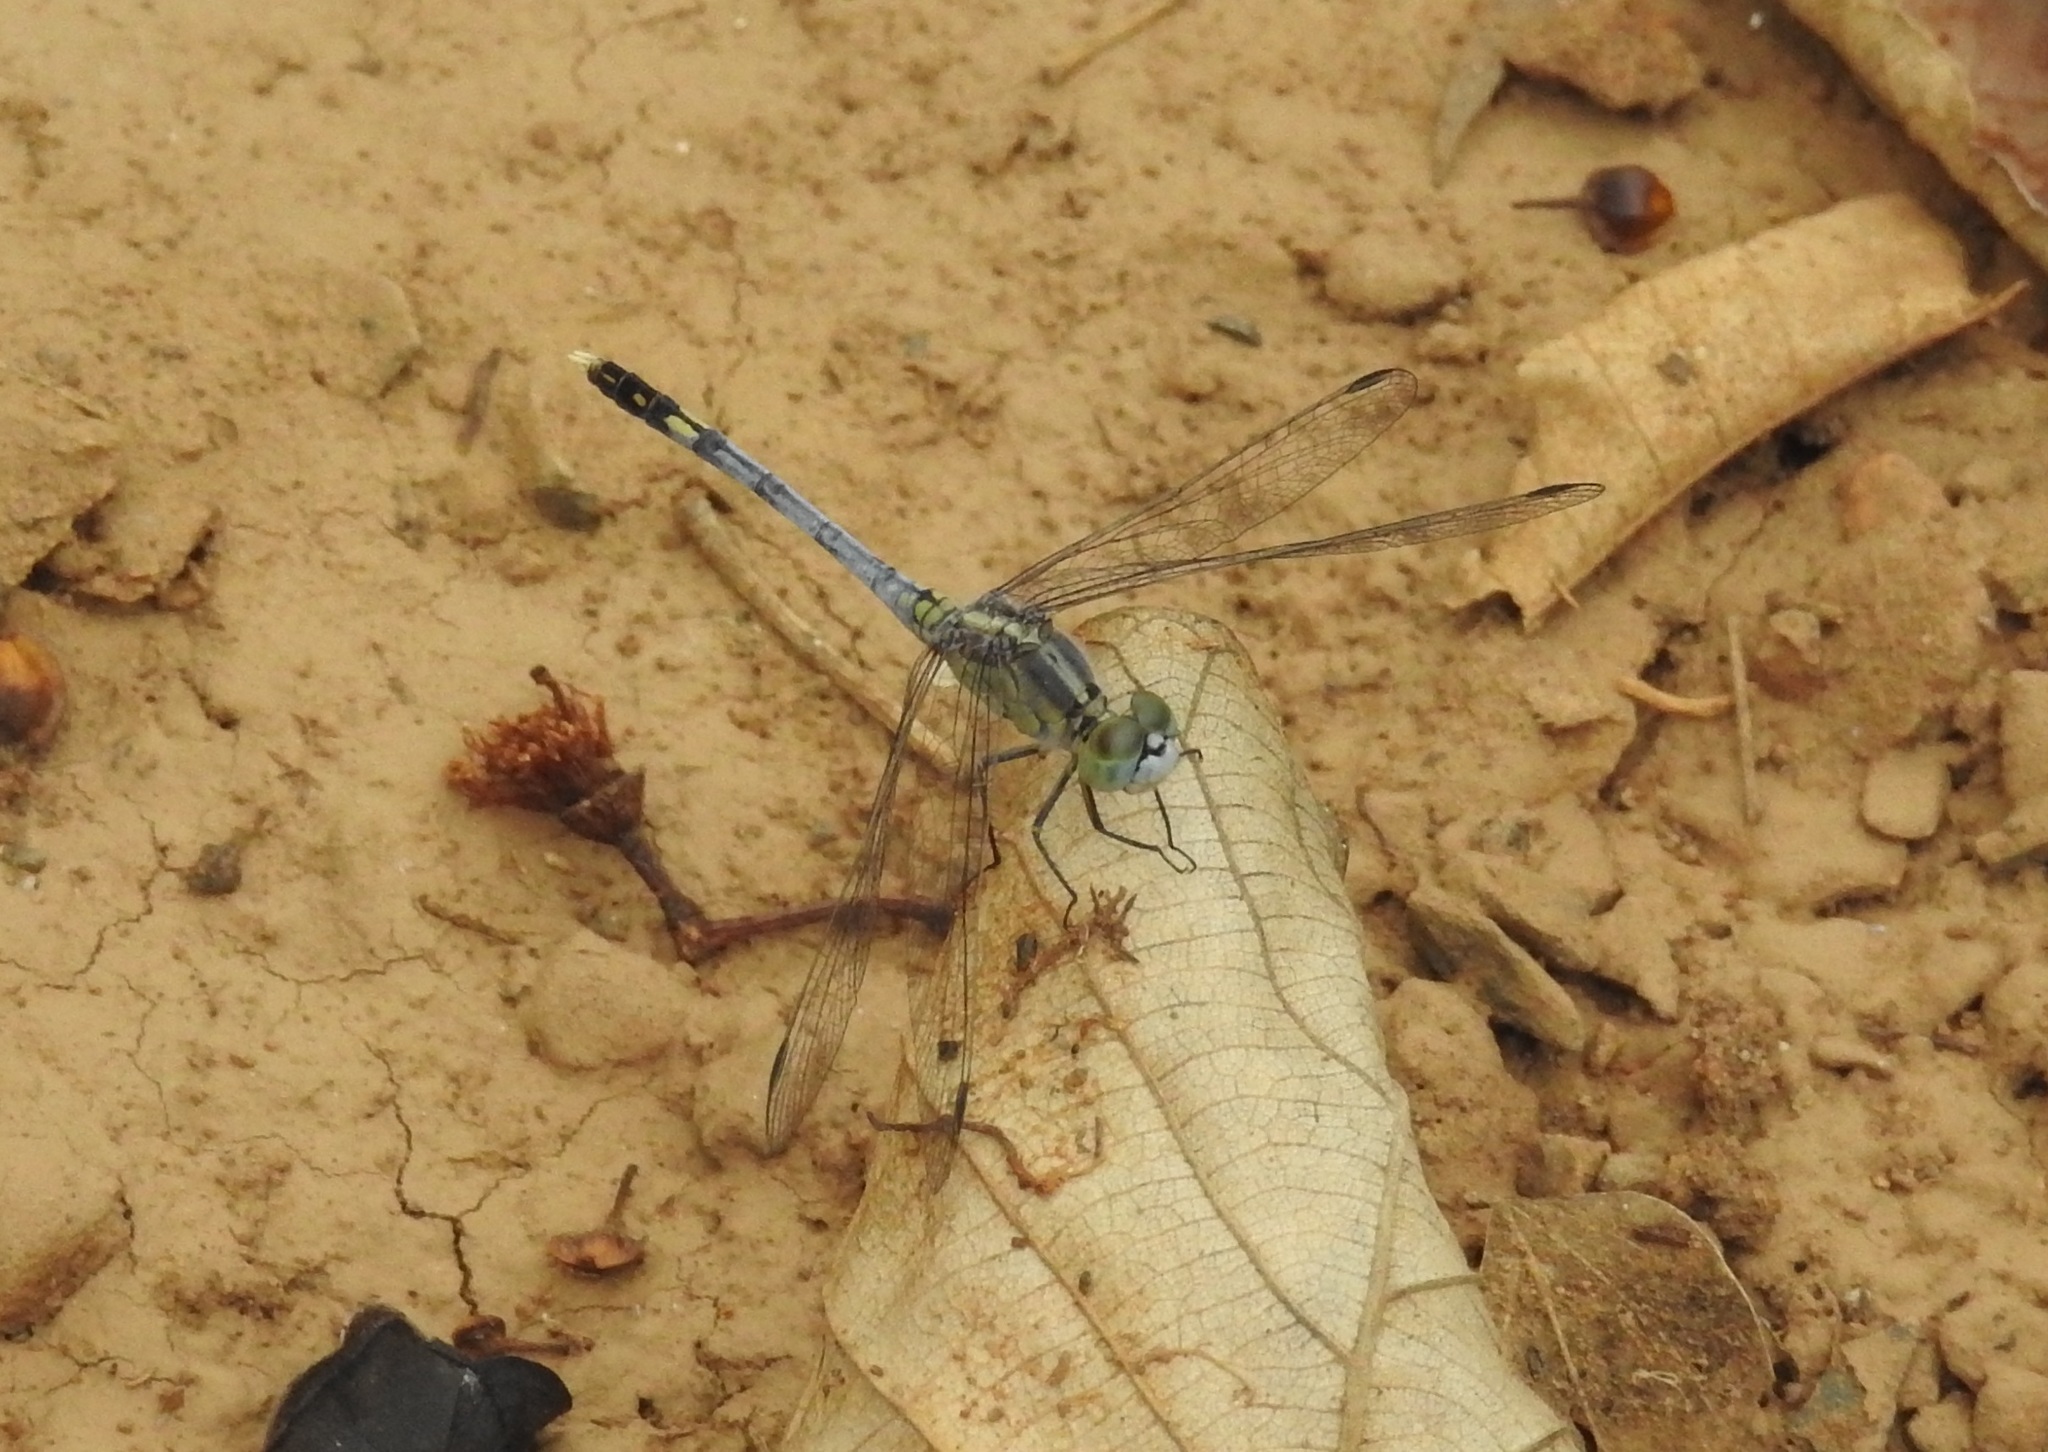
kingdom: Animalia
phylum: Arthropoda
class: Insecta
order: Odonata
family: Libellulidae
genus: Diplacodes
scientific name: Diplacodes trivialis
